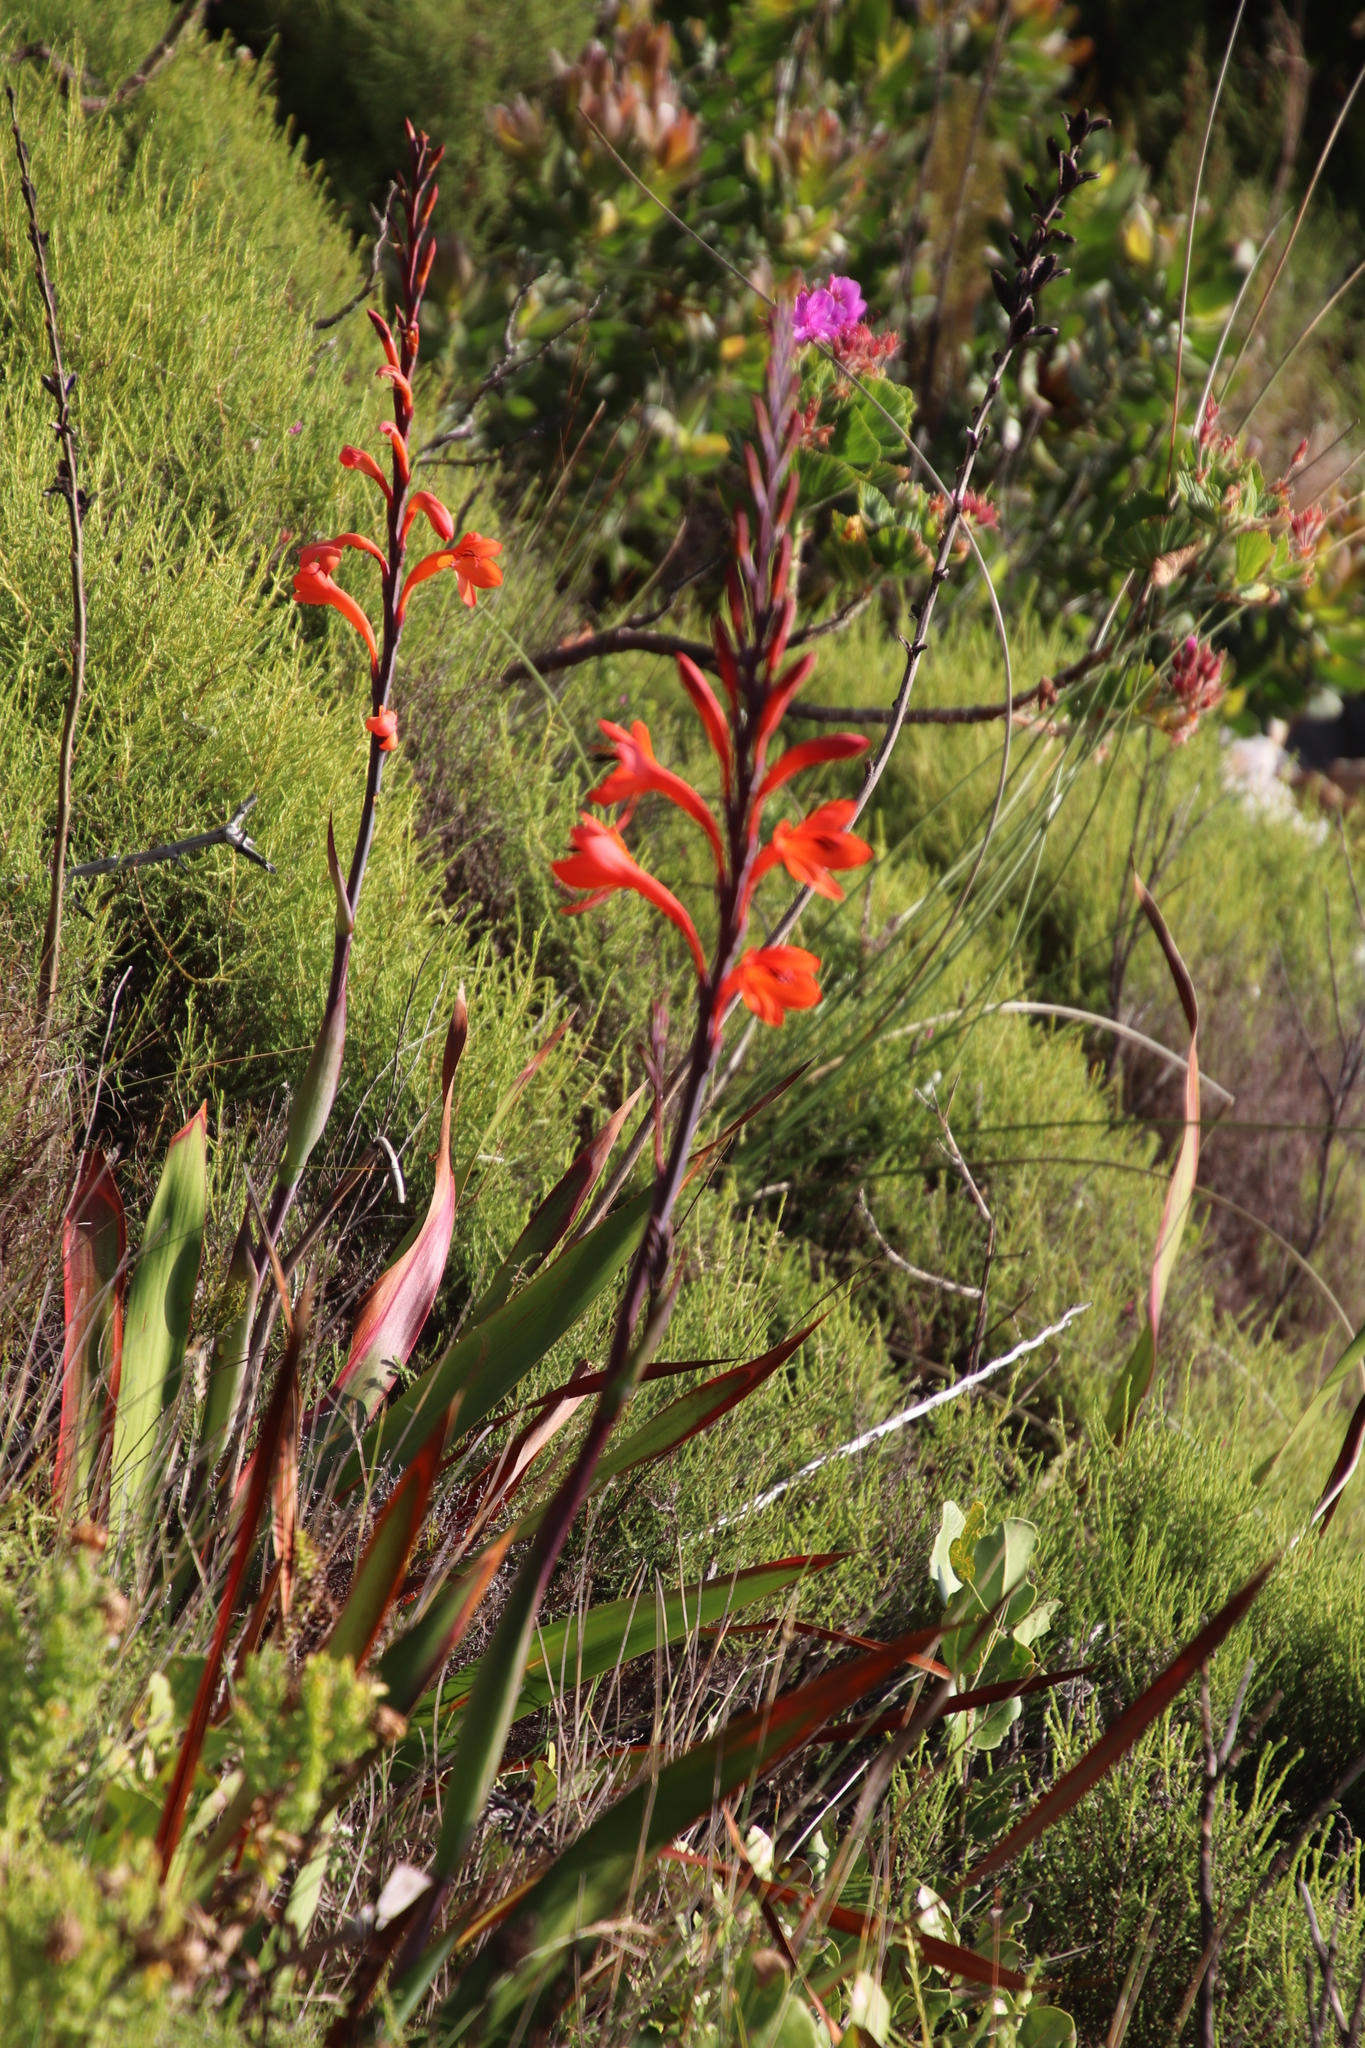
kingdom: Plantae
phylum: Tracheophyta
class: Liliopsida
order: Asparagales
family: Iridaceae
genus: Watsonia
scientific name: Watsonia tabularis
